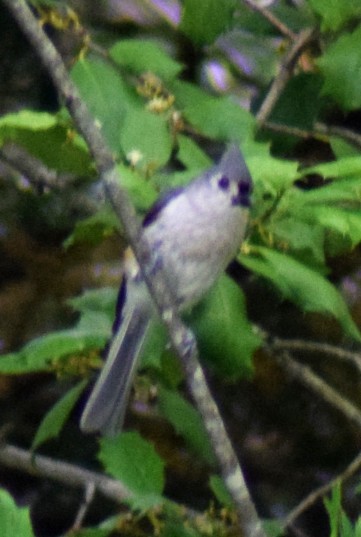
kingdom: Animalia
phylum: Chordata
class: Aves
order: Passeriformes
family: Paridae
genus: Baeolophus
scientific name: Baeolophus bicolor
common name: Tufted titmouse
